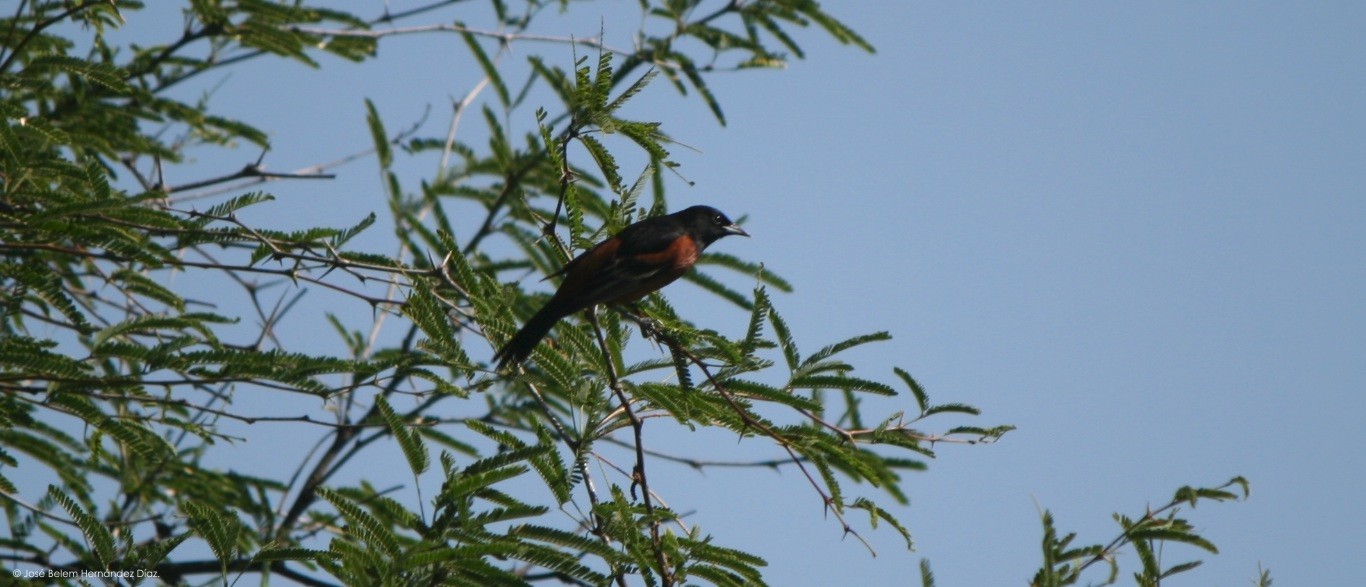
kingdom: Animalia
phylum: Chordata
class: Aves
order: Passeriformes
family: Icteridae
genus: Icterus
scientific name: Icterus spurius
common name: Orchard oriole
